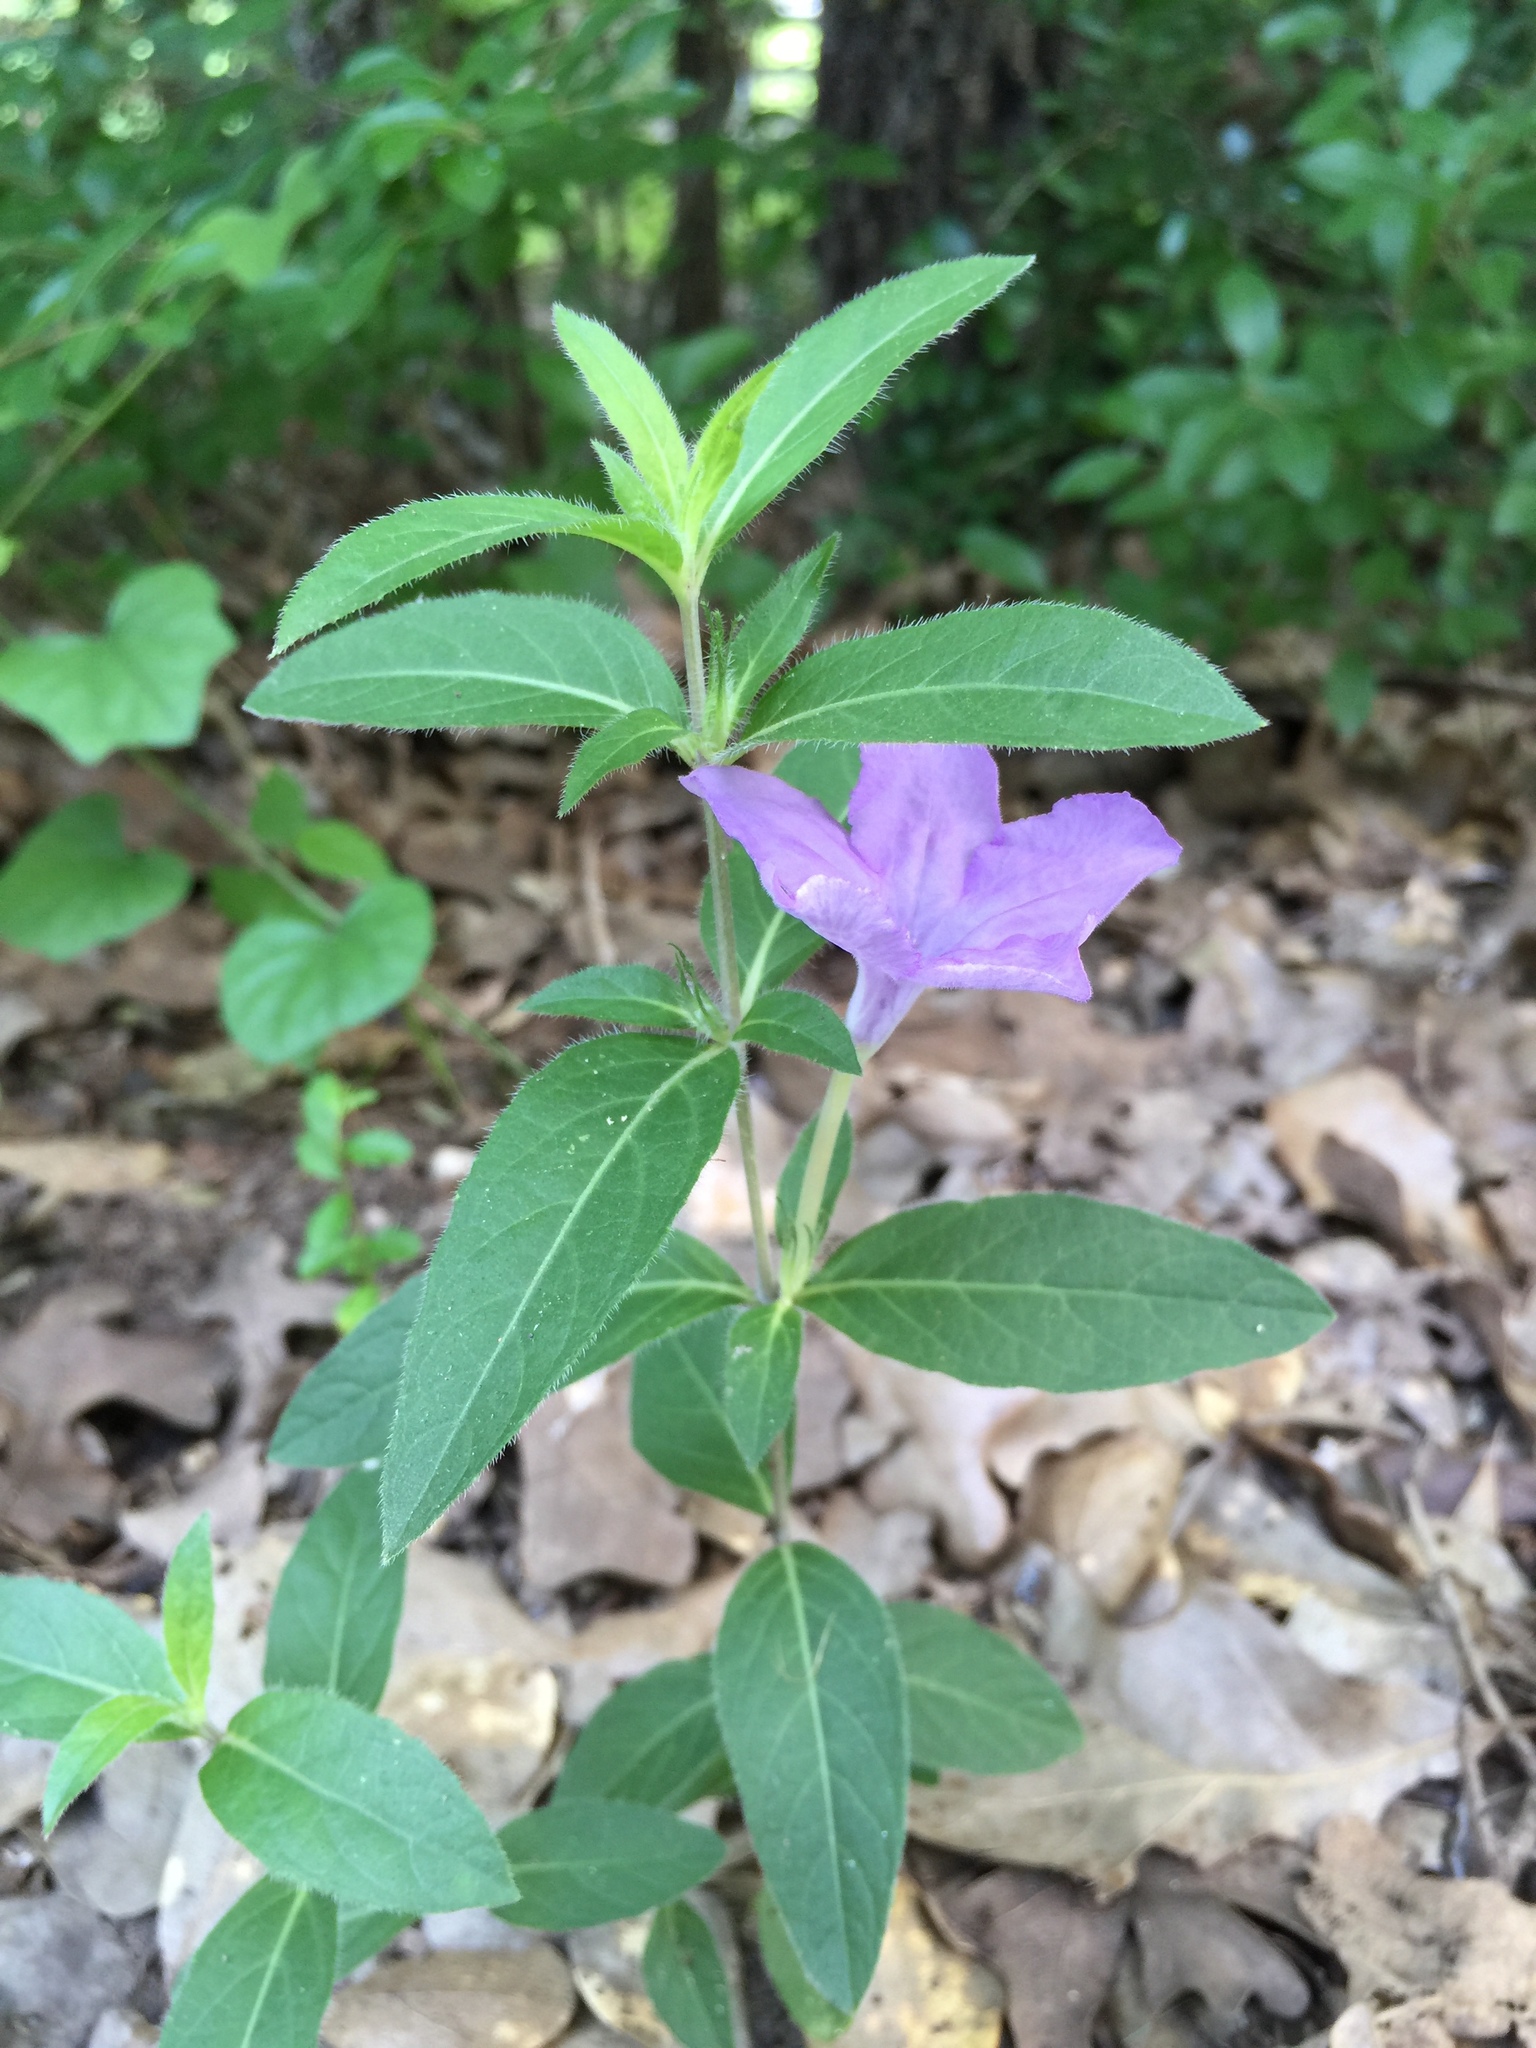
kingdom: Plantae
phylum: Tracheophyta
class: Magnoliopsida
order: Lamiales
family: Acanthaceae
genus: Ruellia
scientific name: Ruellia humilis
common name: Fringe-leaf ruellia
